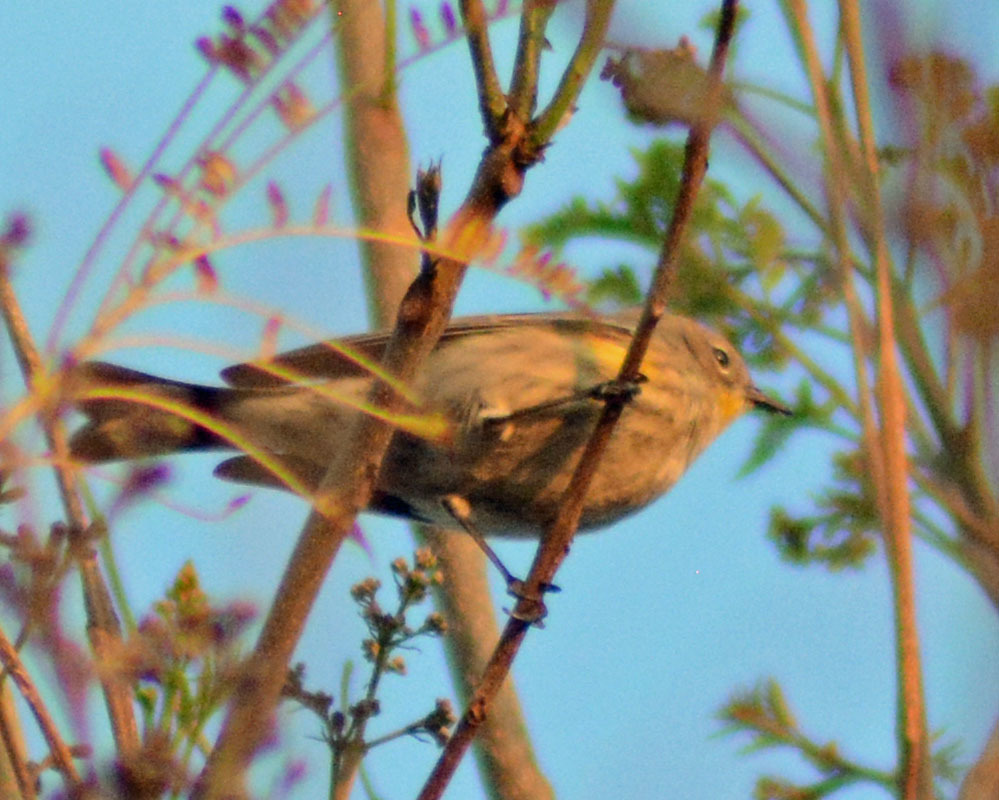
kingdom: Animalia
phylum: Chordata
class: Aves
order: Passeriformes
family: Parulidae
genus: Setophaga
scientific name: Setophaga coronata
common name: Myrtle warbler
